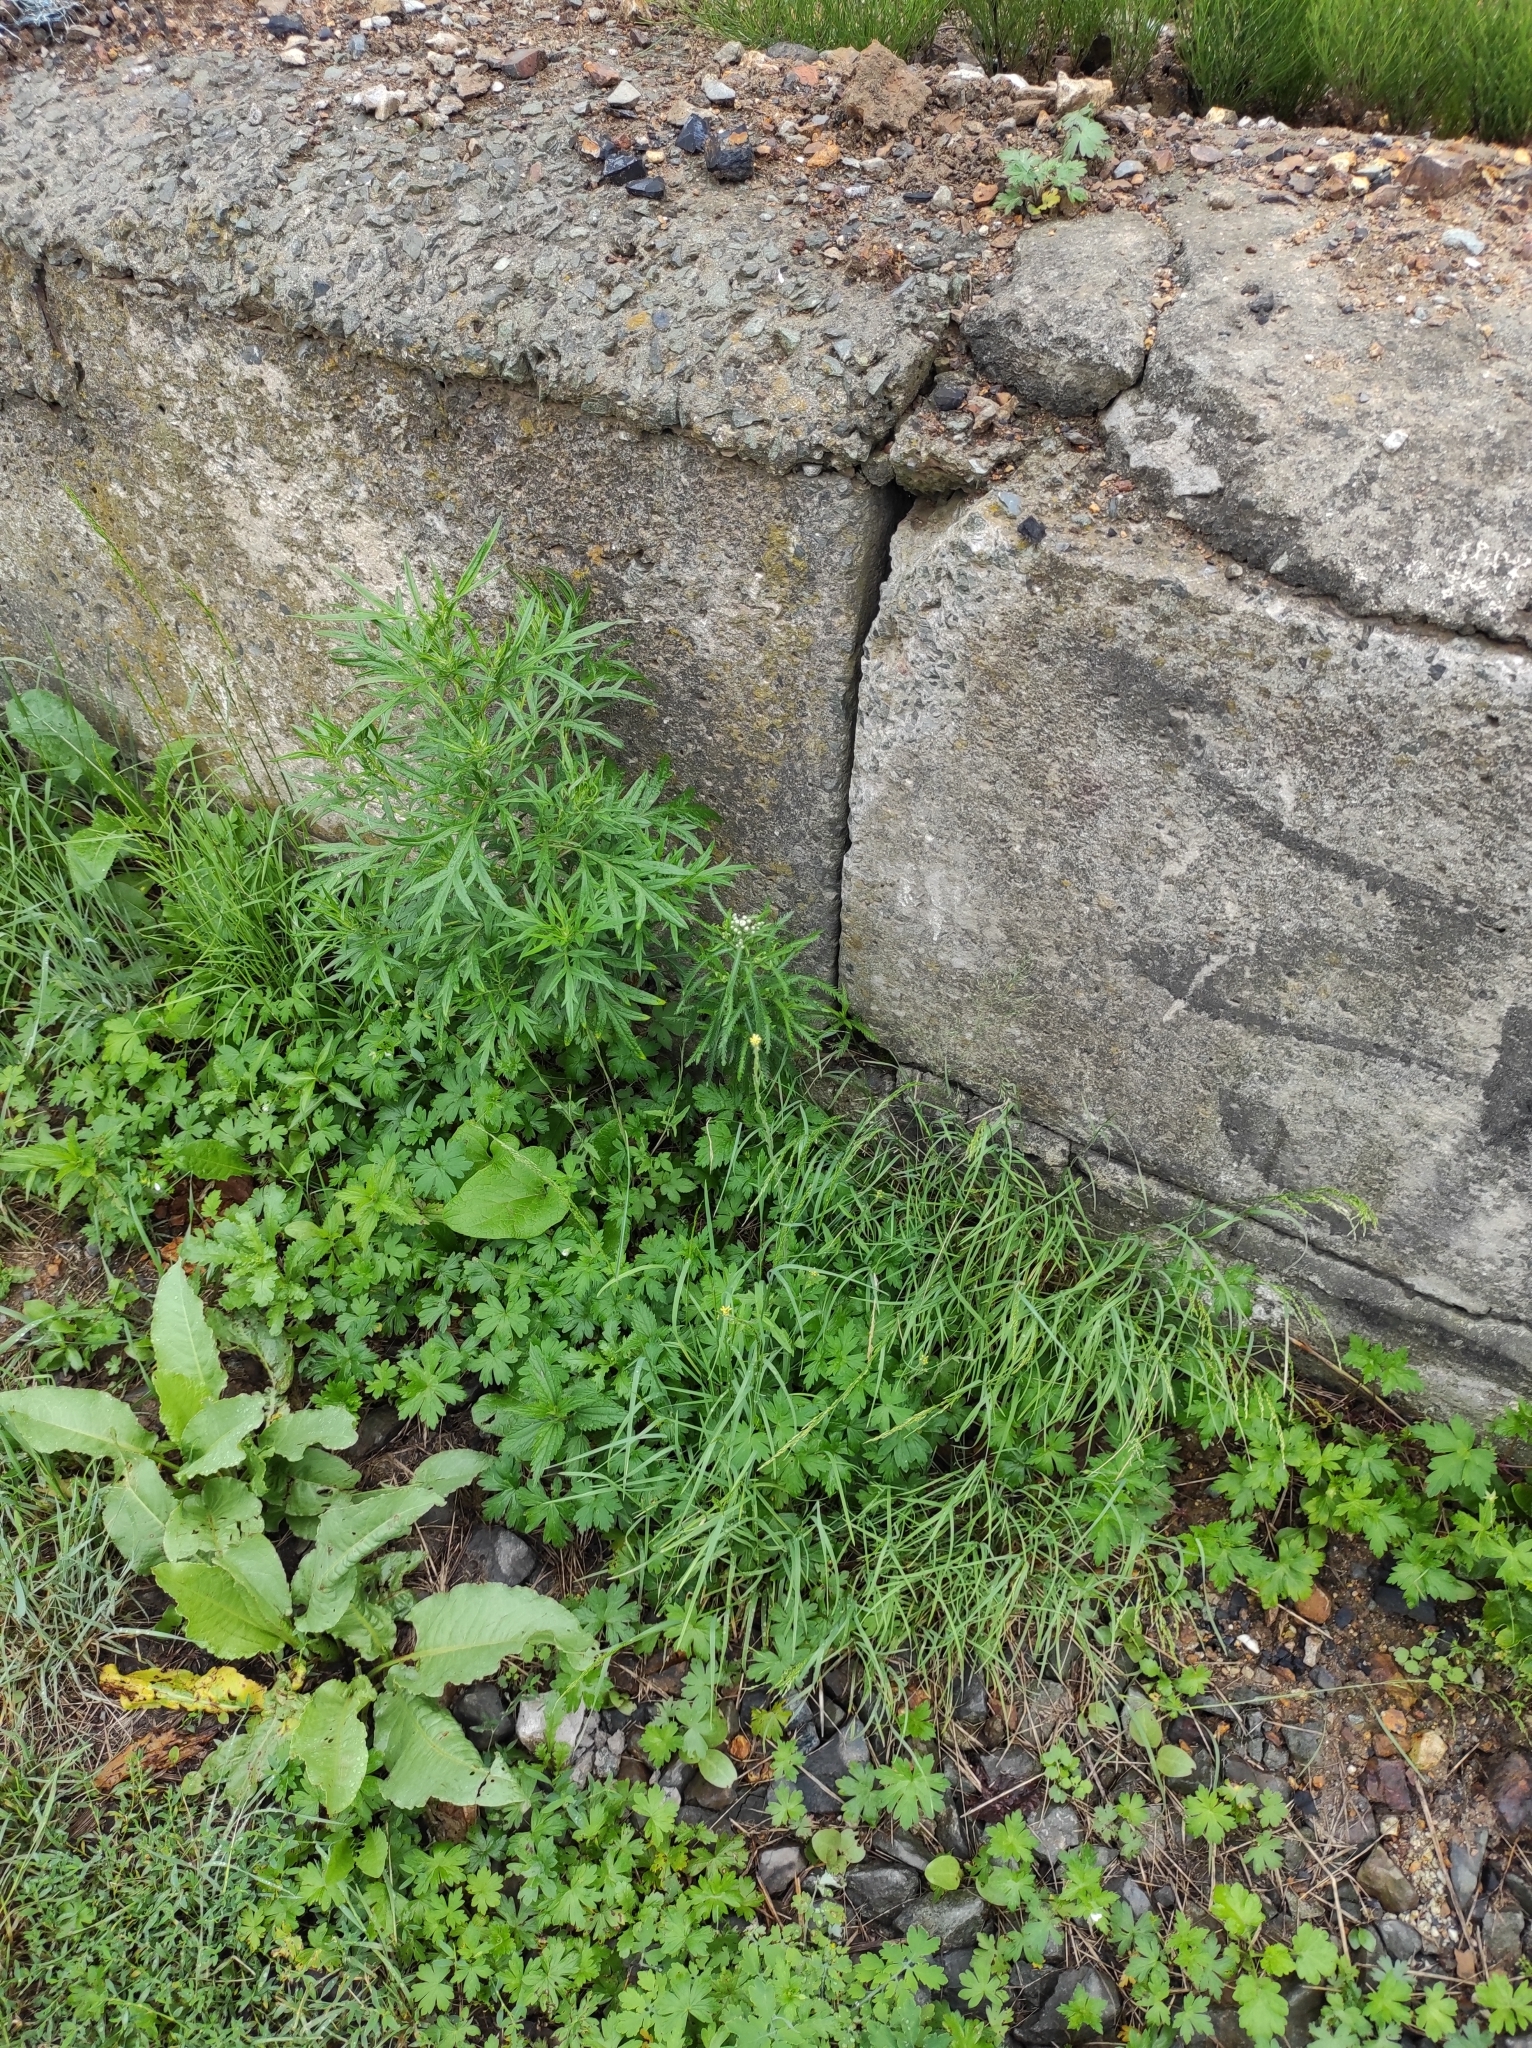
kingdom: Plantae
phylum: Tracheophyta
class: Magnoliopsida
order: Asterales
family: Asteraceae
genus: Achillea
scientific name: Achillea ptarmicoides
